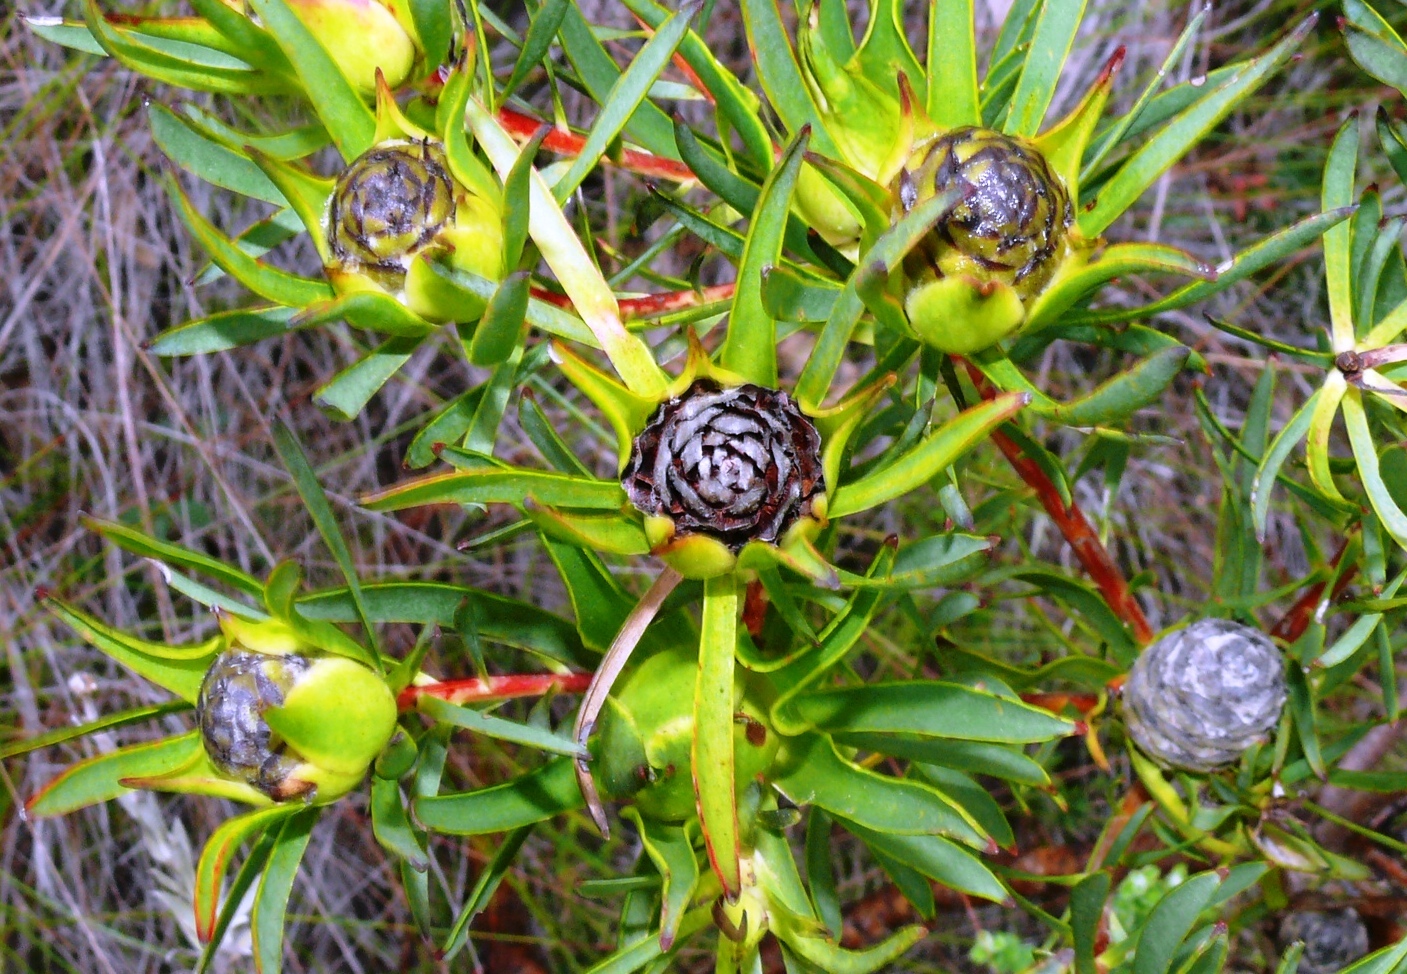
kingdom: Plantae
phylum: Tracheophyta
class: Magnoliopsida
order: Proteales
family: Proteaceae
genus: Leucadendron
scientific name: Leucadendron salignum
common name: Common sunshine conebush
